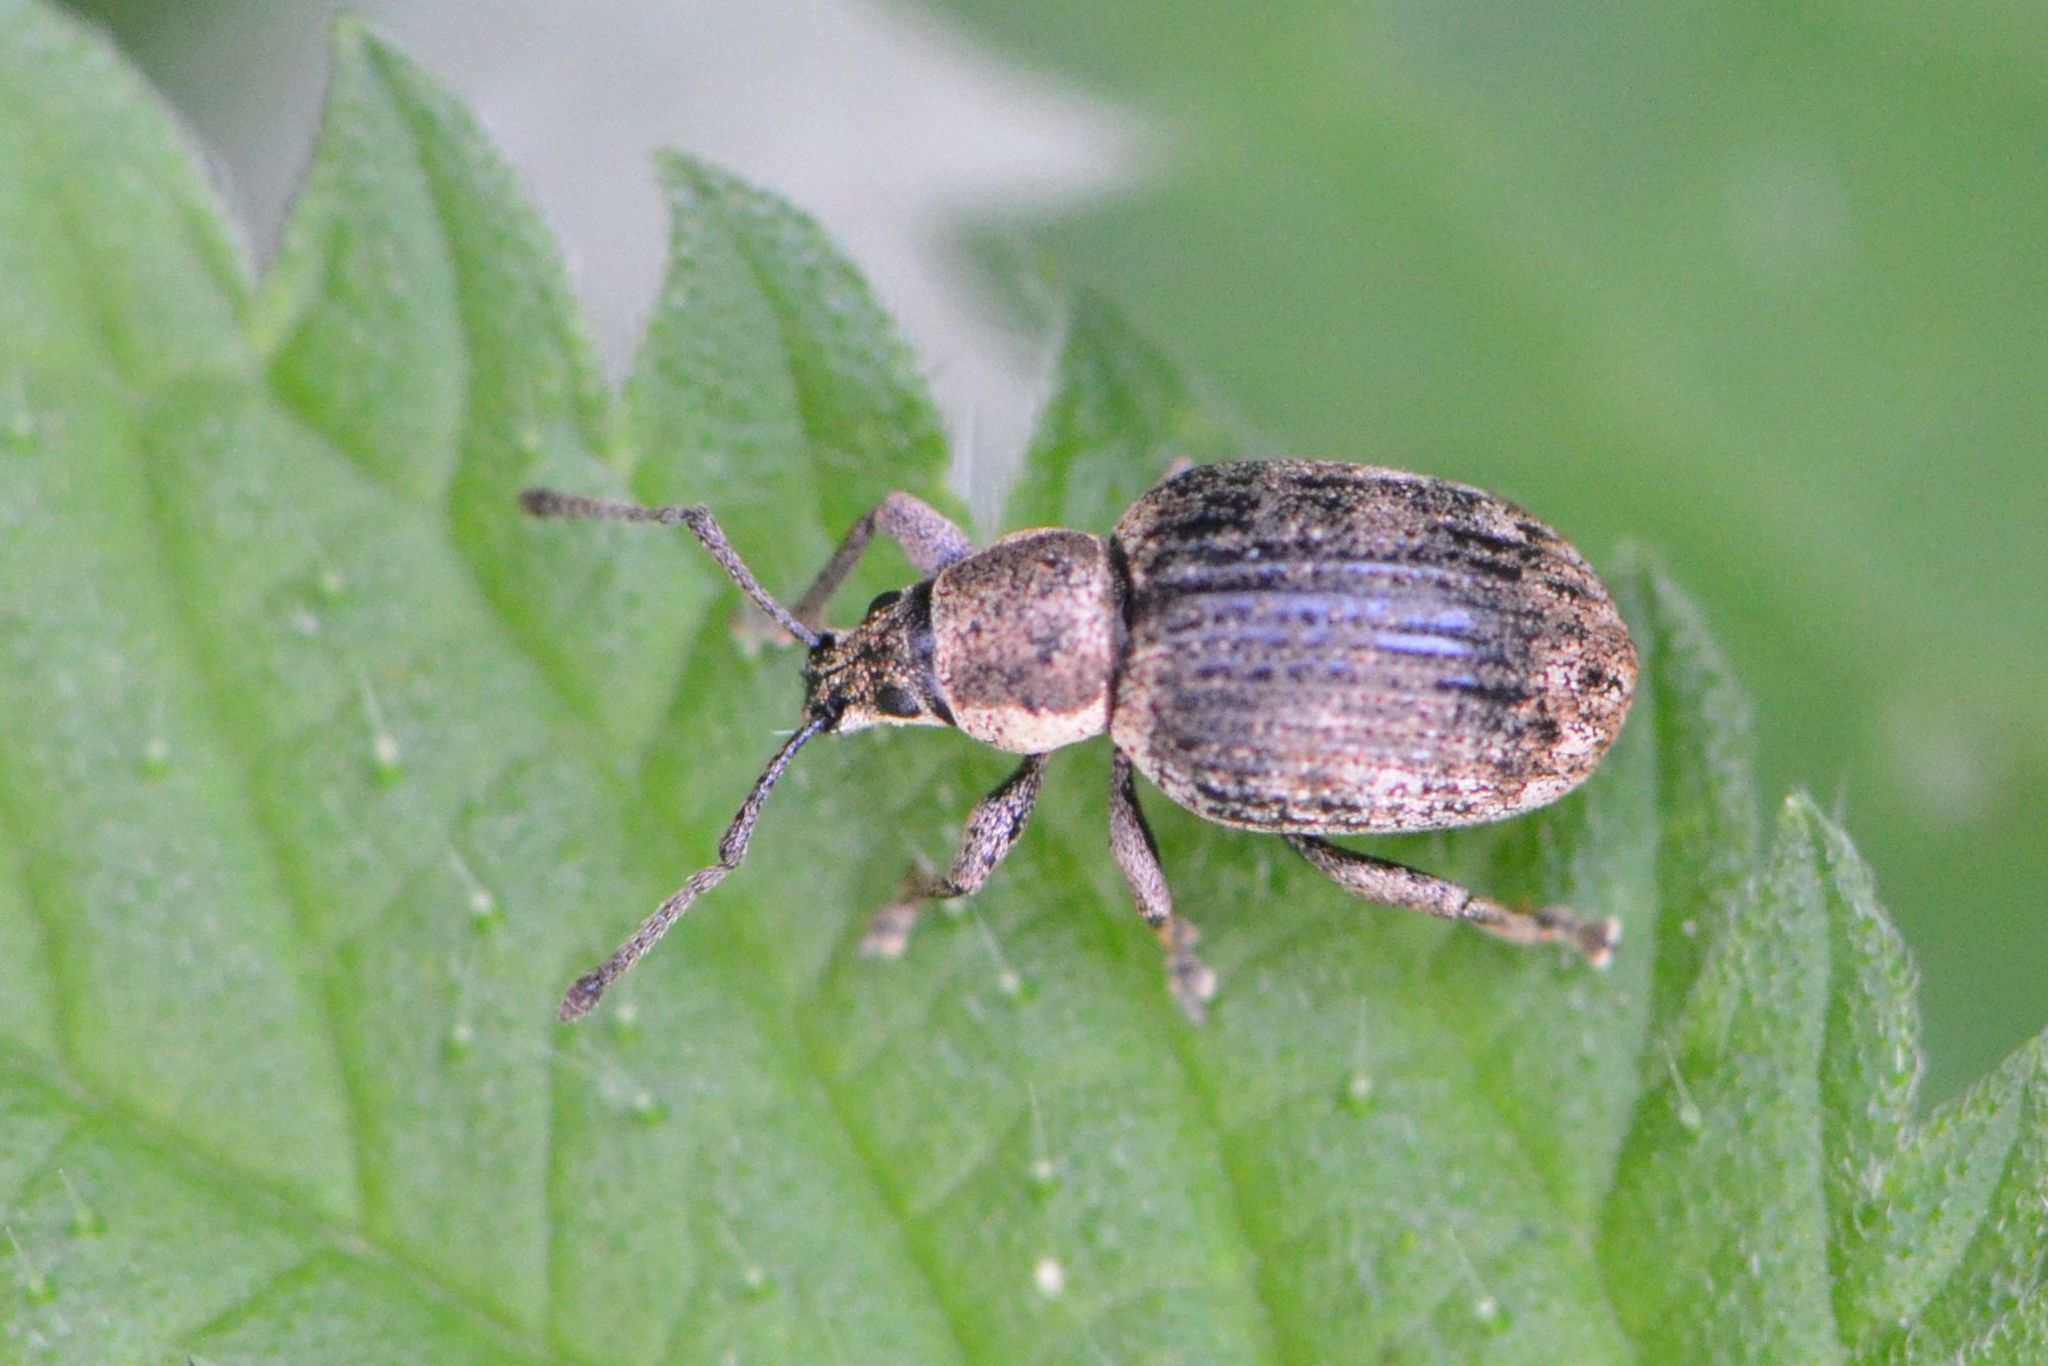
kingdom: Animalia
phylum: Arthropoda
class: Insecta
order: Coleoptera
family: Curculionidae
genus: Peritelus
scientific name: Peritelus sphaeroides
